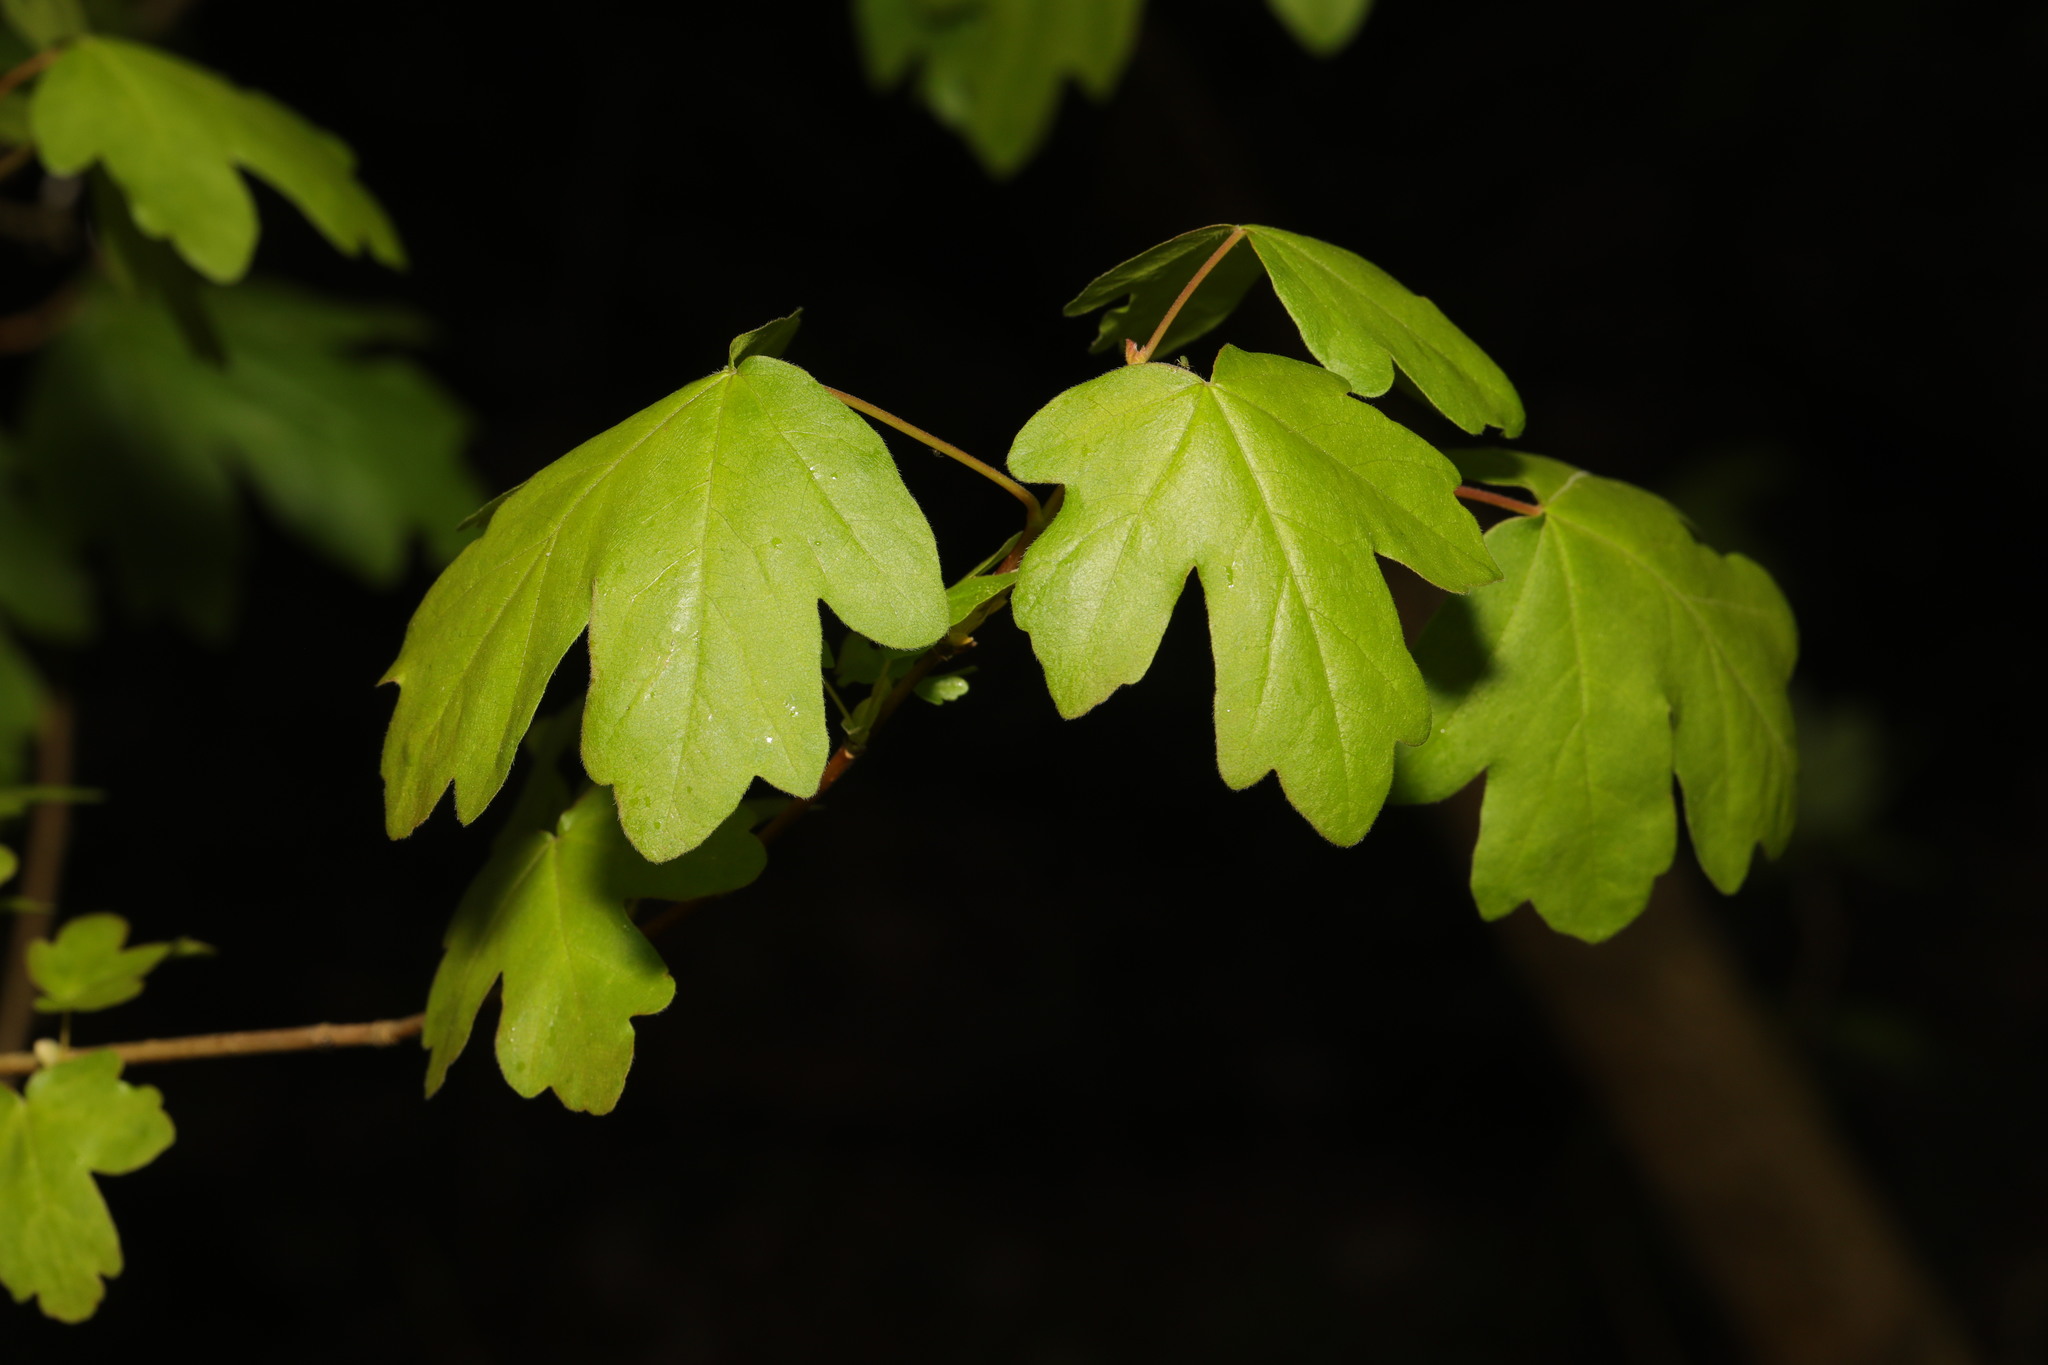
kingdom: Plantae
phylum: Tracheophyta
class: Magnoliopsida
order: Sapindales
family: Sapindaceae
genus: Acer
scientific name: Acer campestre
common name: Field maple
